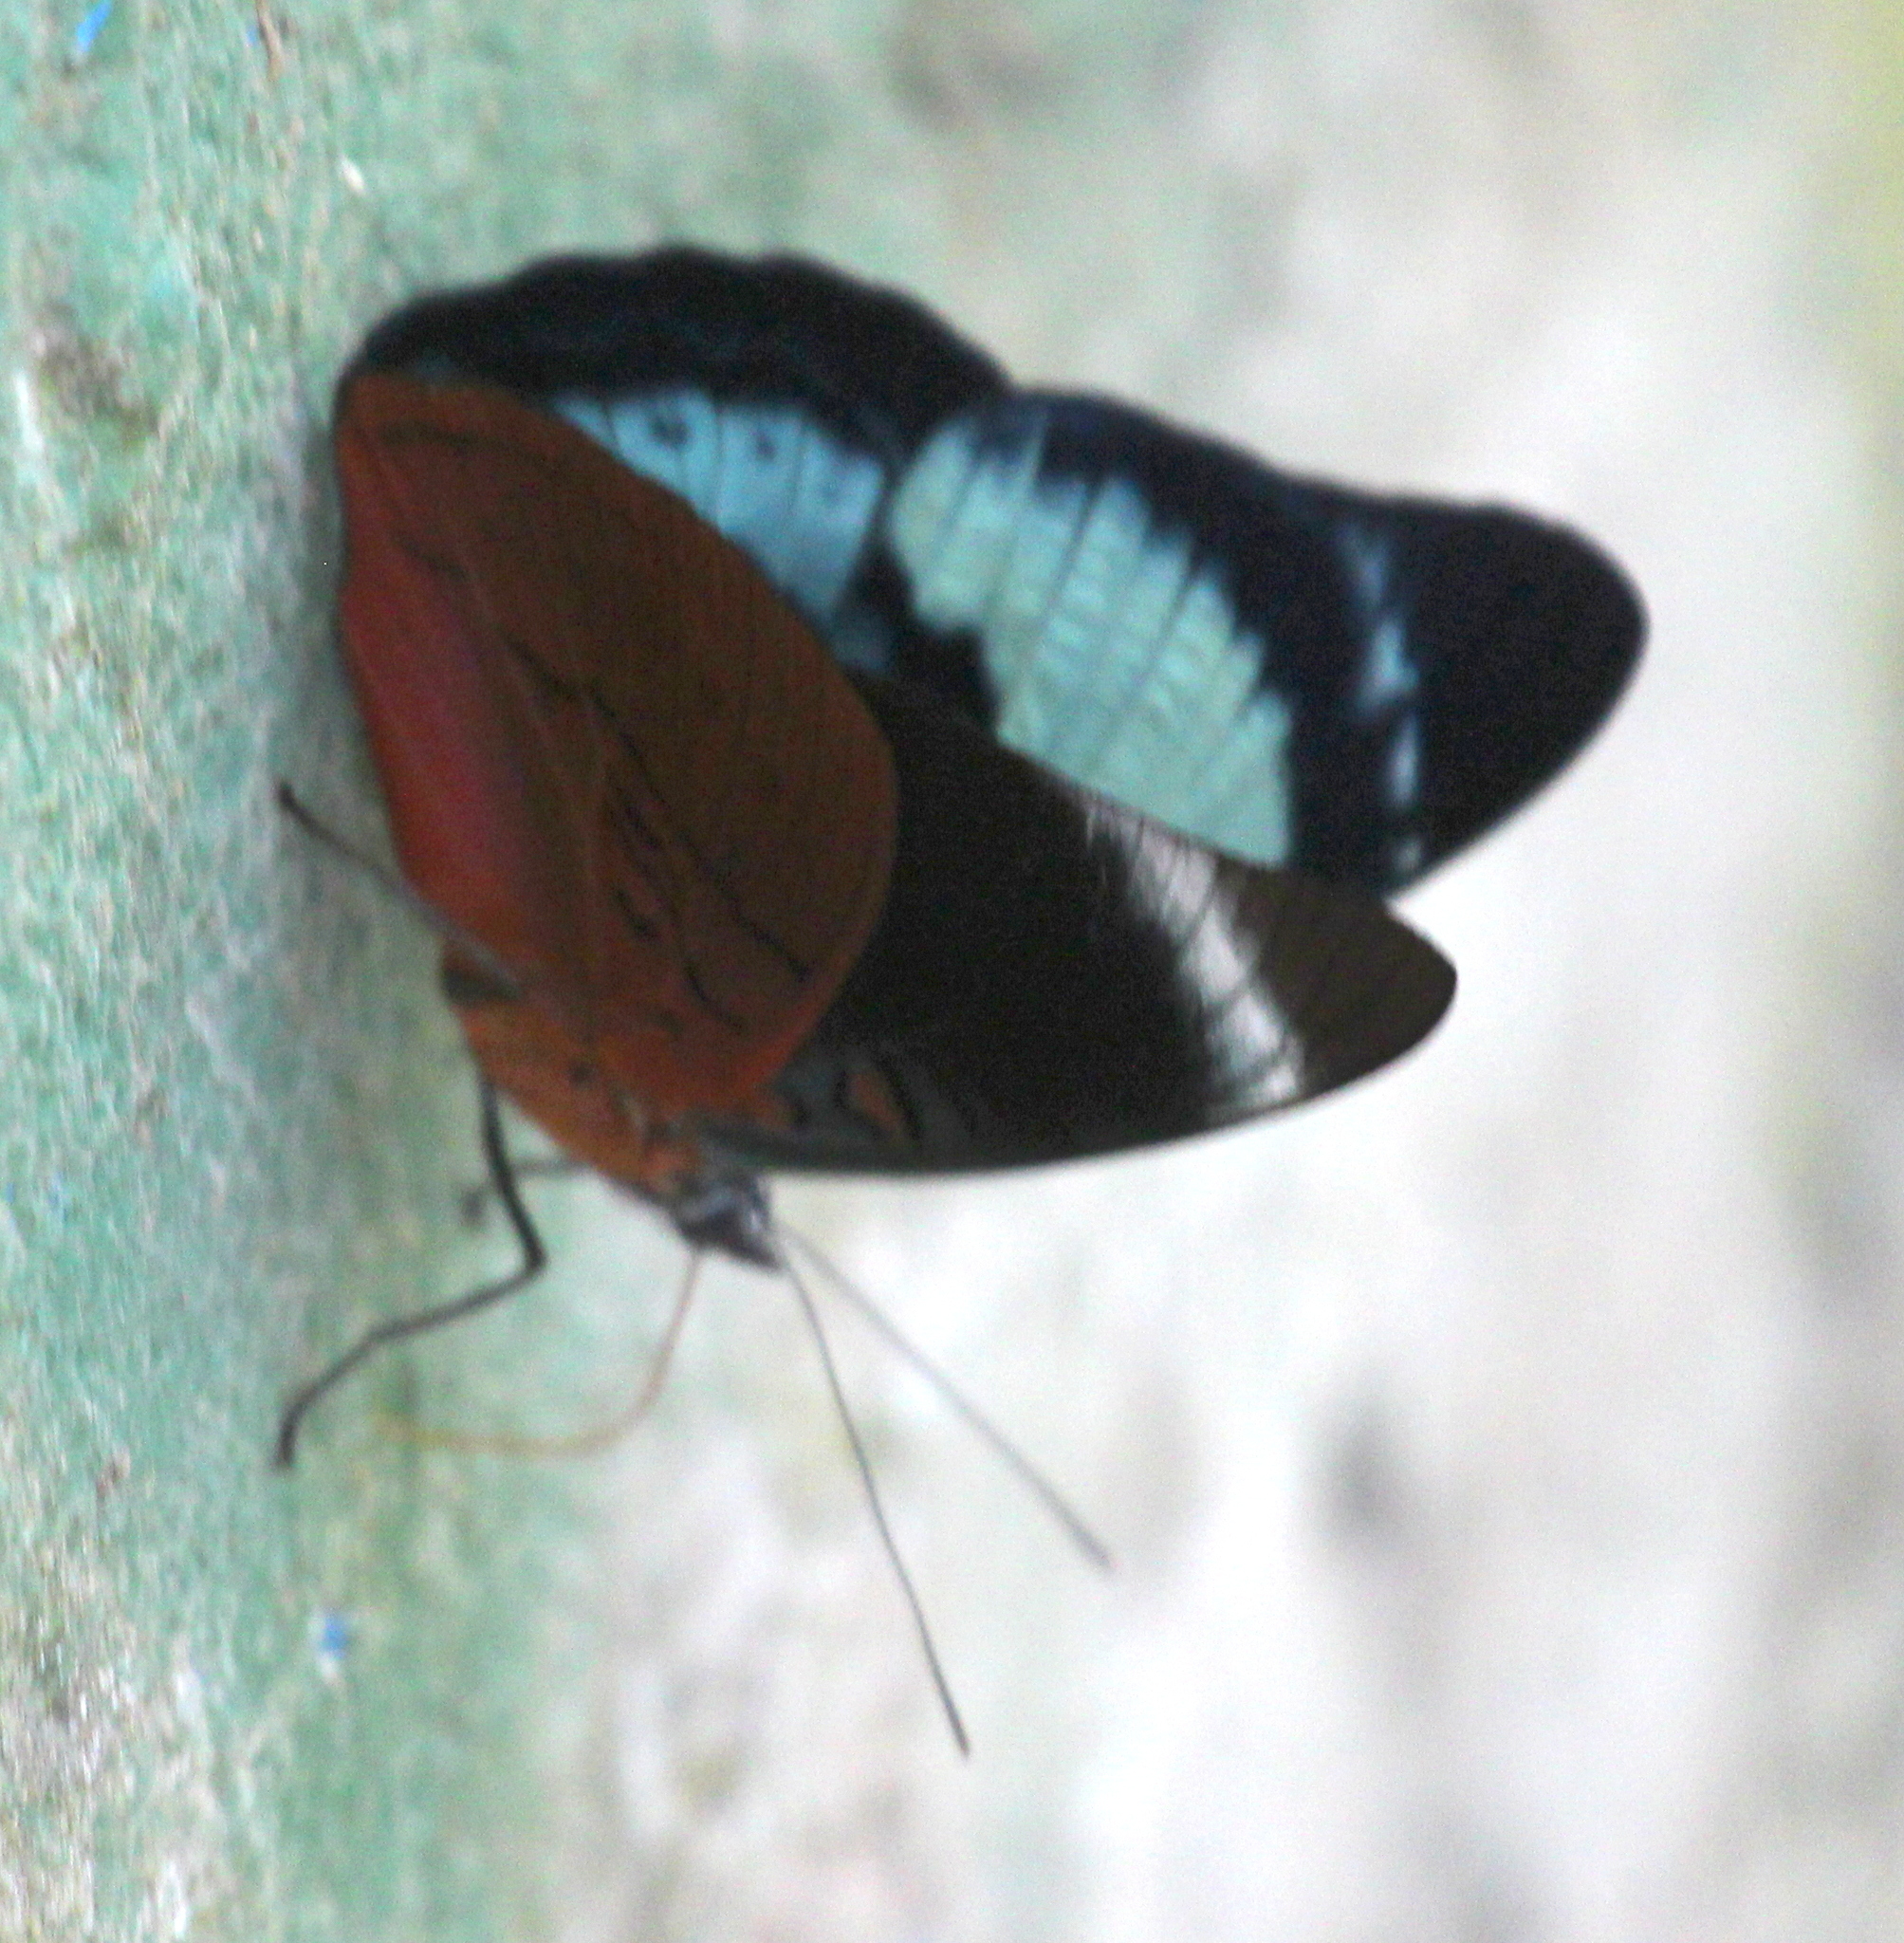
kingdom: Animalia
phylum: Arthropoda
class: Insecta
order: Lepidoptera
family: Nymphalidae
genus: Panacea
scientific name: Panacea procilla
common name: Procilla beauty
